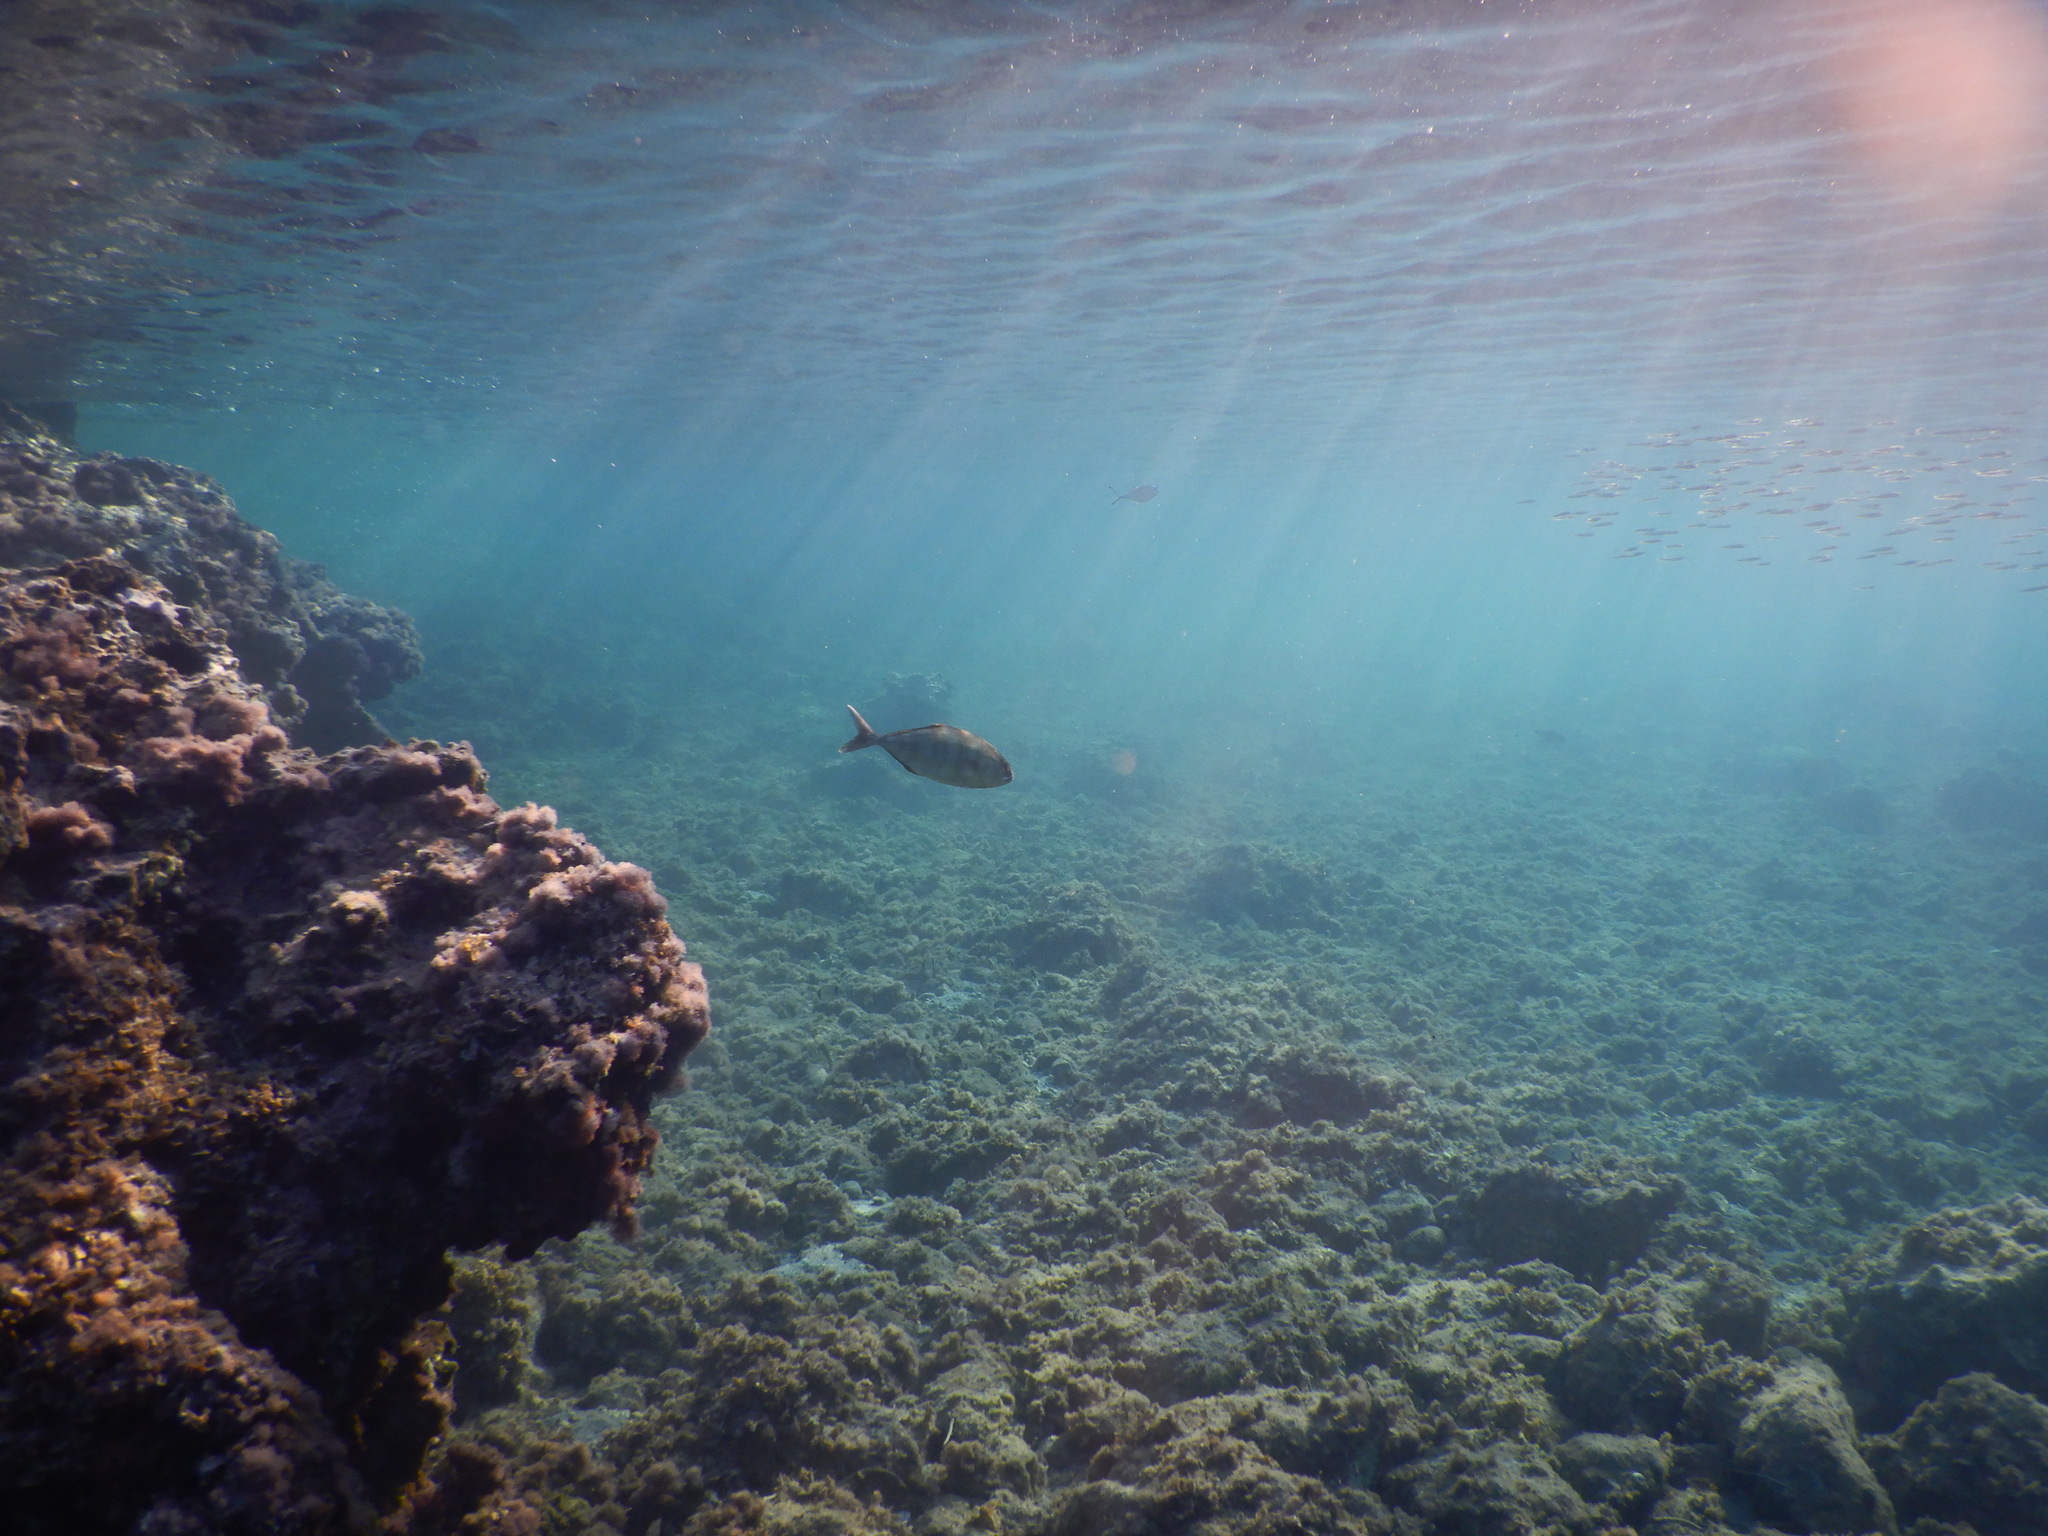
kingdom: Animalia
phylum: Chordata
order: Perciformes
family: Carangidae
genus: Seriola
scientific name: Seriola dumerili
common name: Greater amberjack
